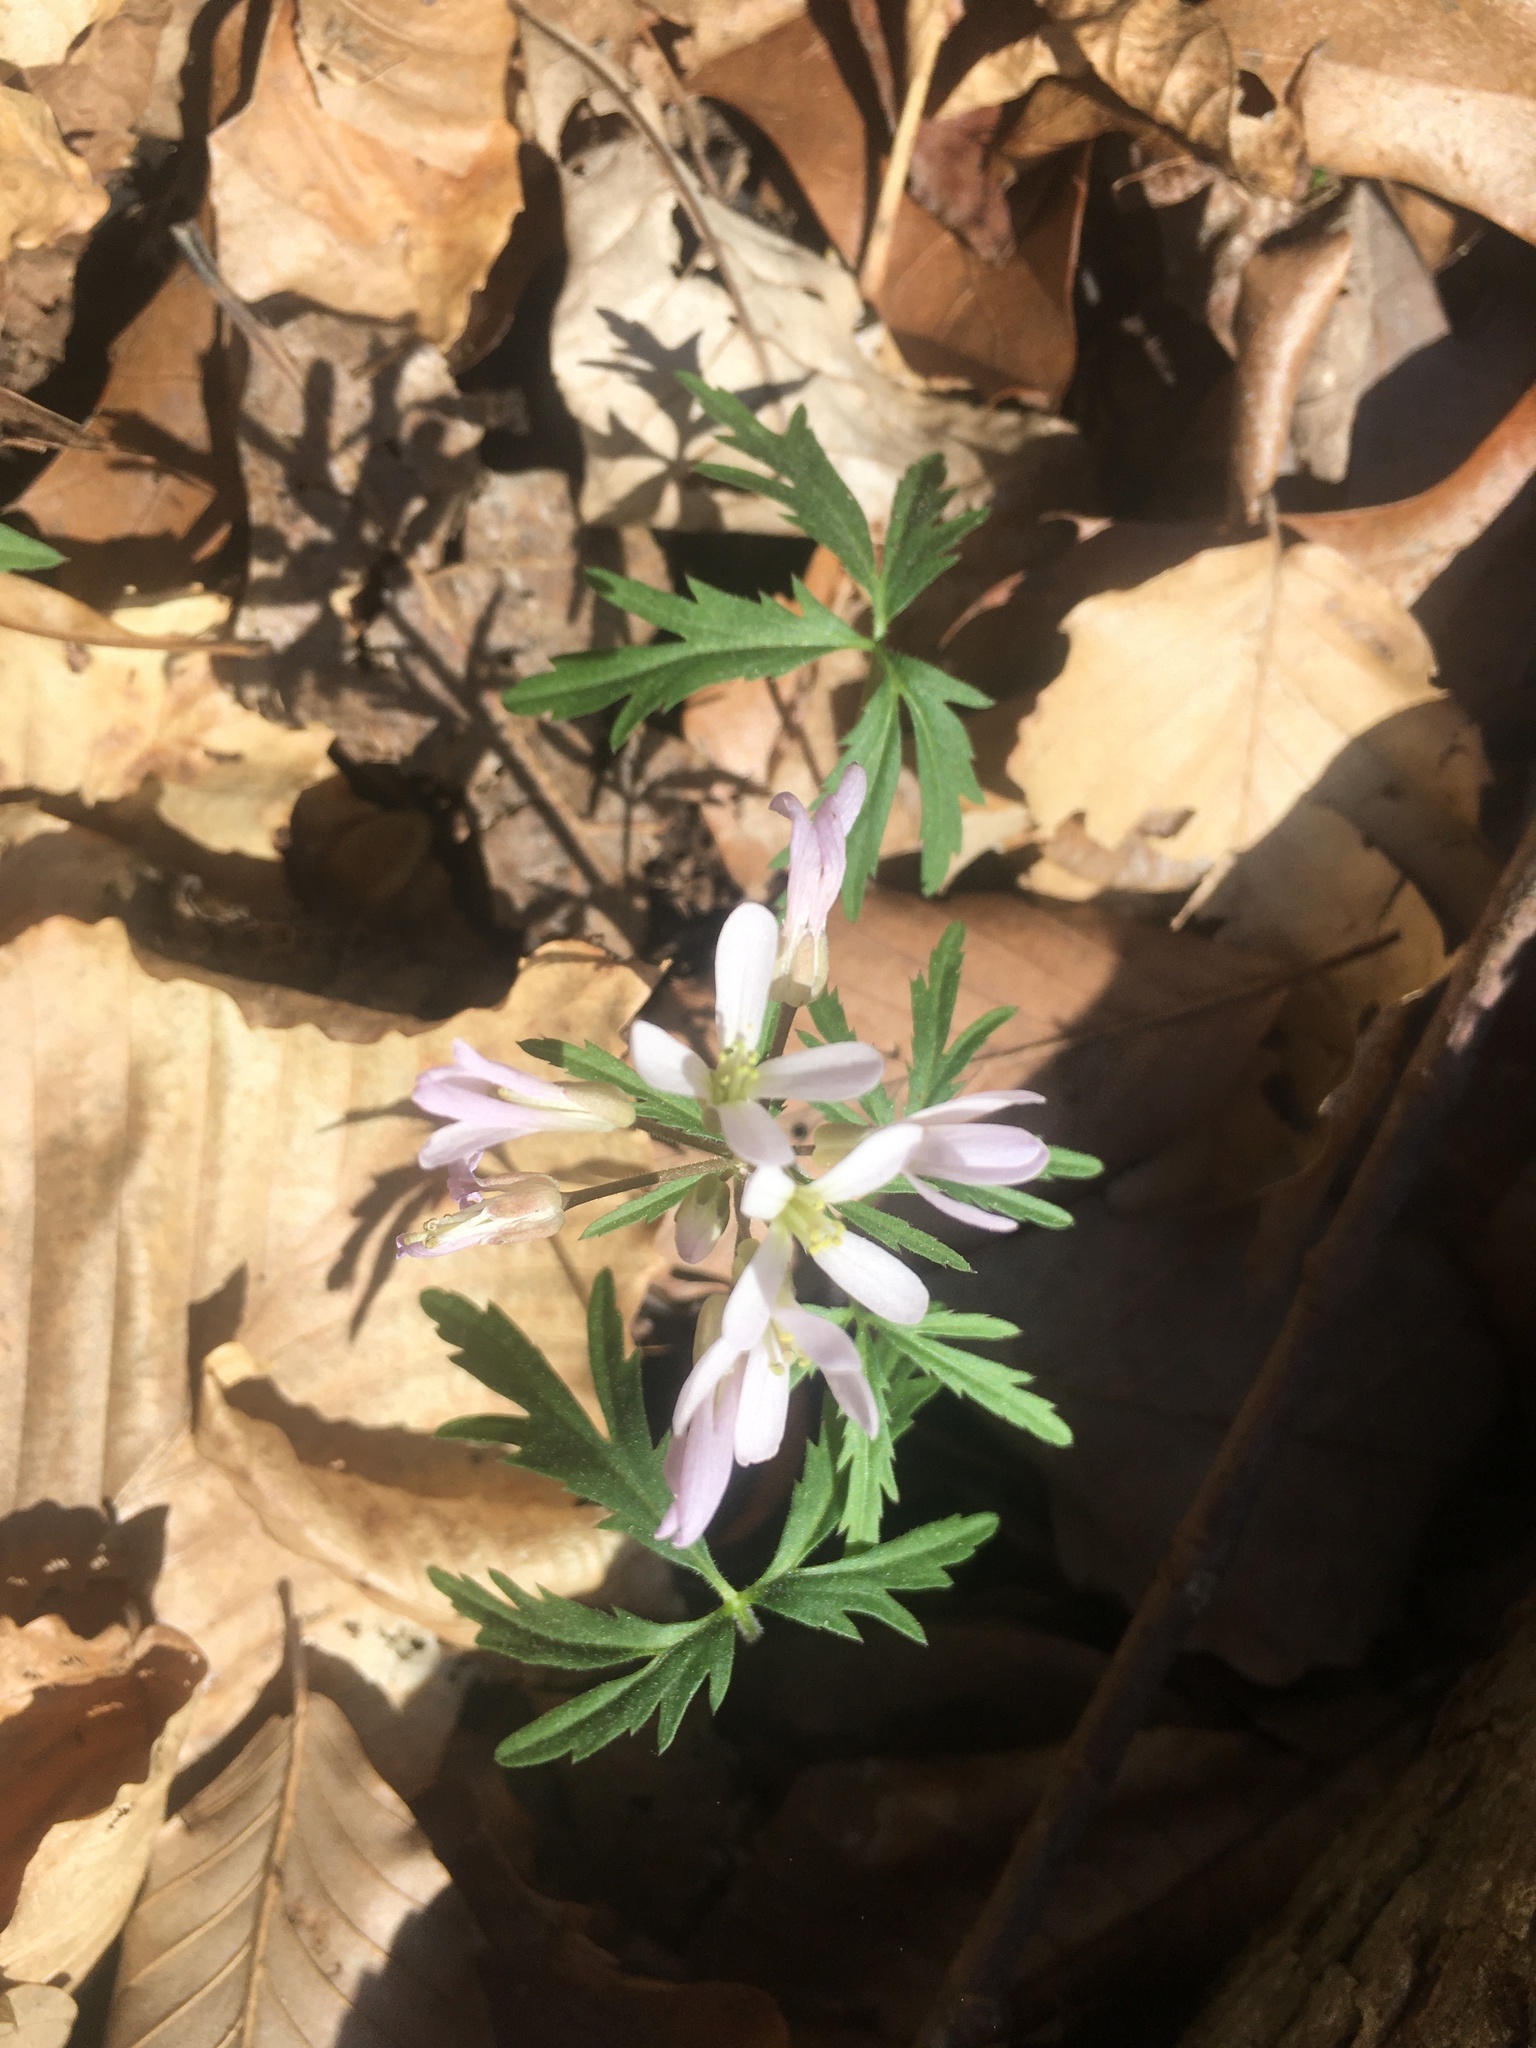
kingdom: Plantae
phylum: Tracheophyta
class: Magnoliopsida
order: Brassicales
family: Brassicaceae
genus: Cardamine
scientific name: Cardamine concatenata
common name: Cut-leaf toothcup
